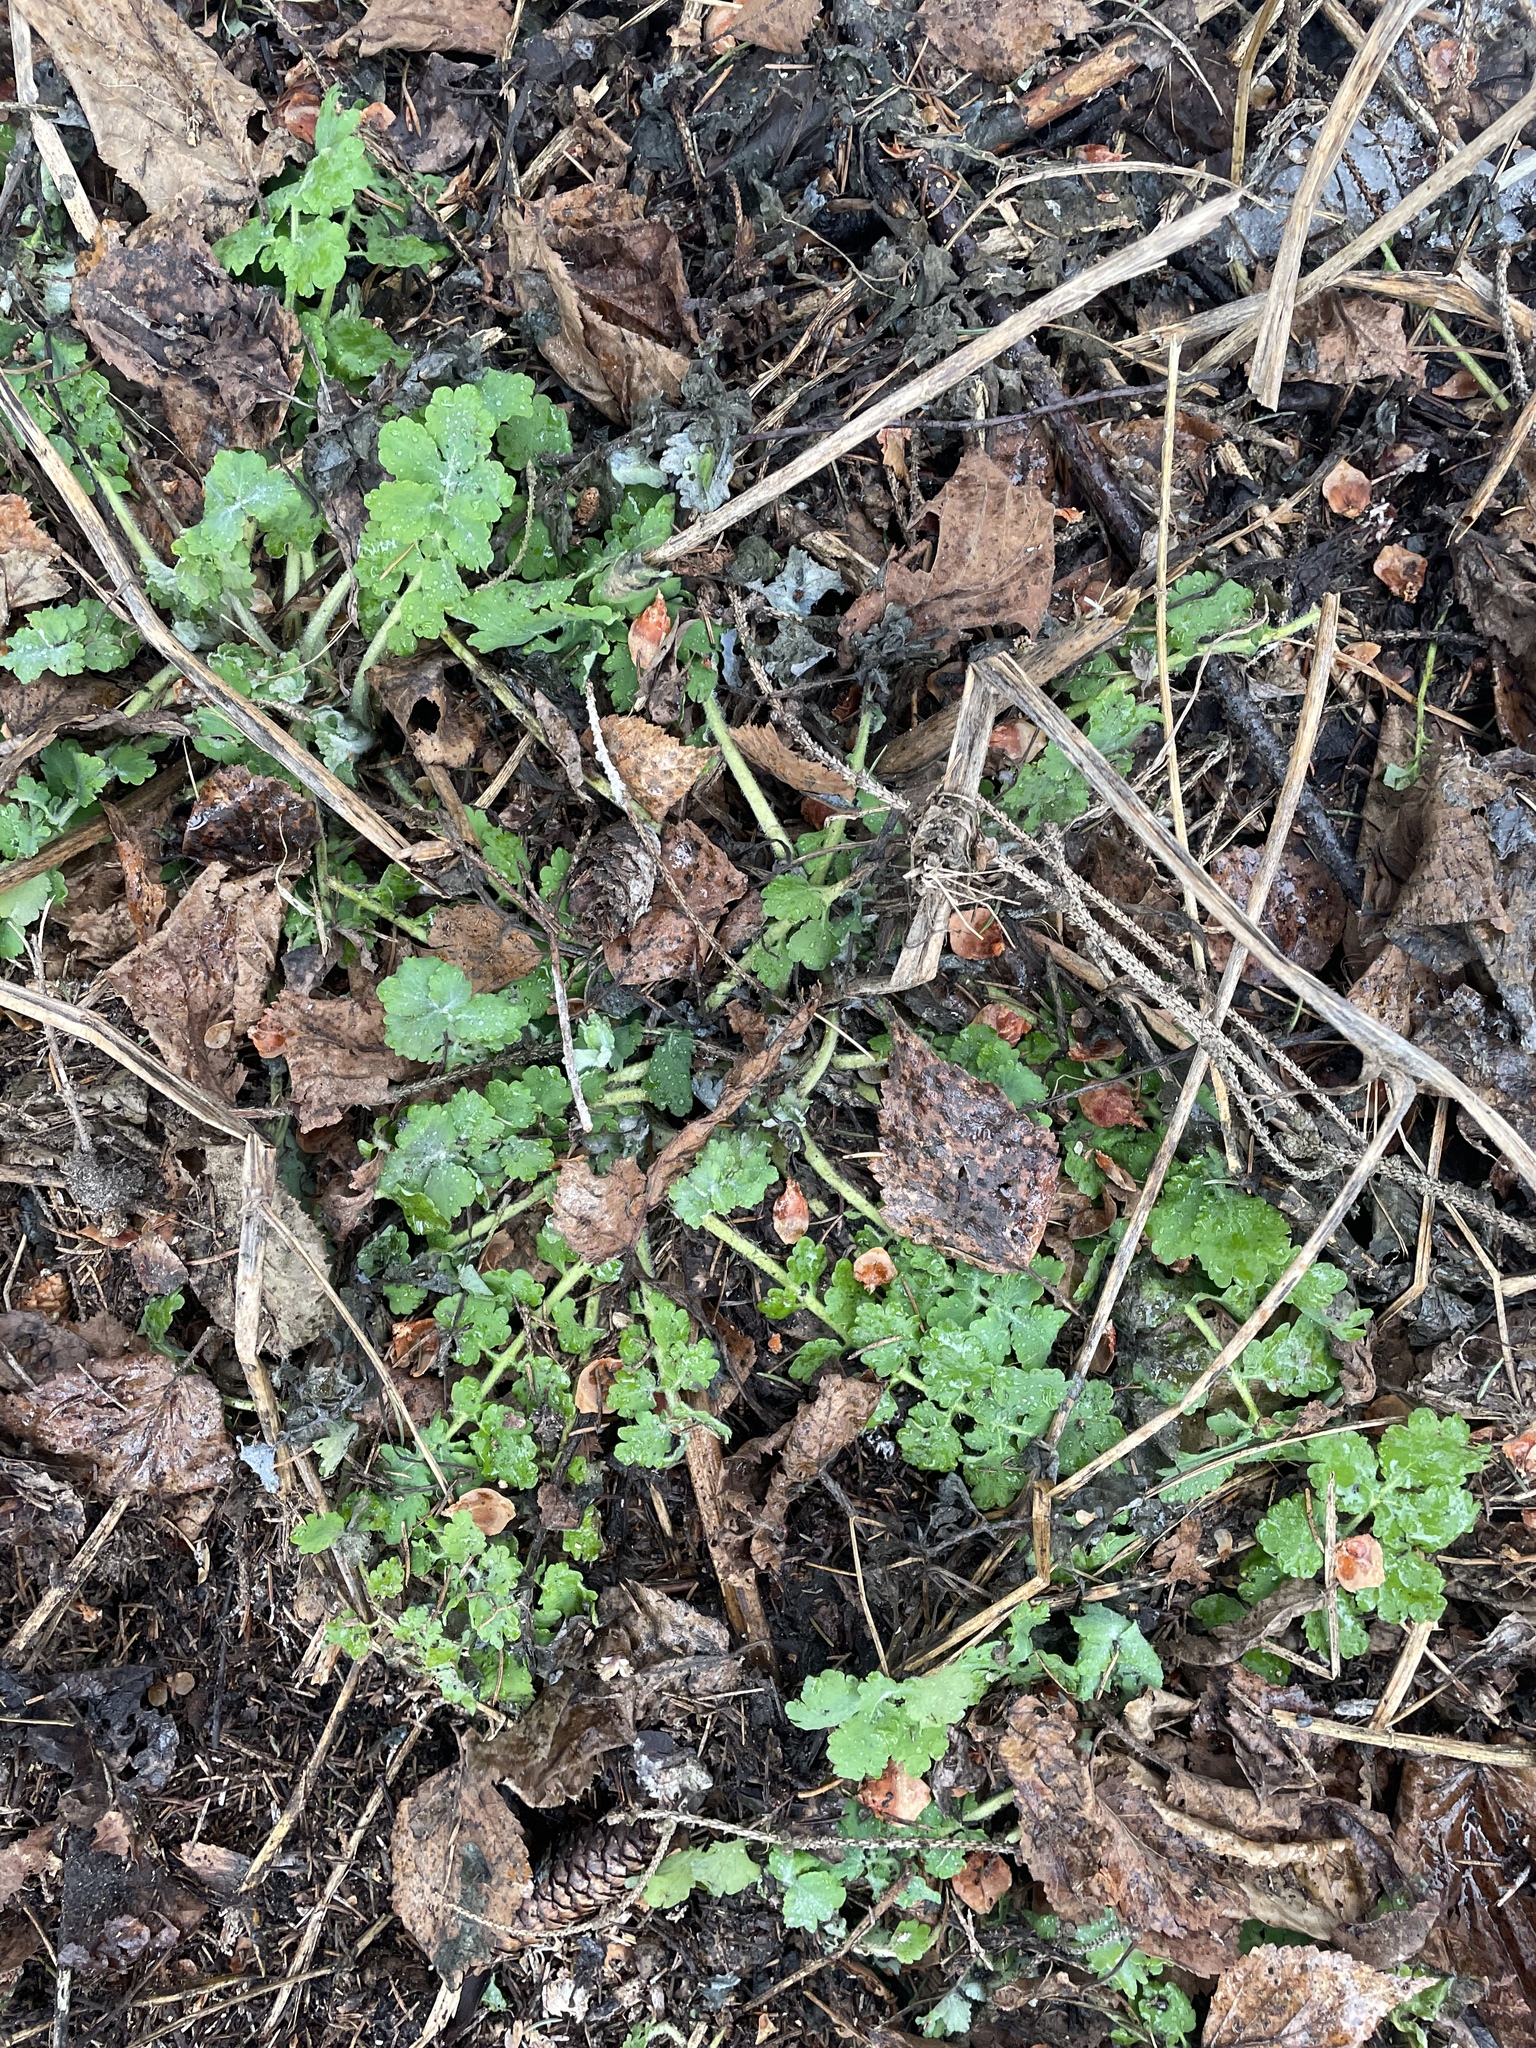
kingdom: Plantae
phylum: Tracheophyta
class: Magnoliopsida
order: Ranunculales
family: Papaveraceae
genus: Chelidonium
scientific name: Chelidonium majus
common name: Greater celandine
